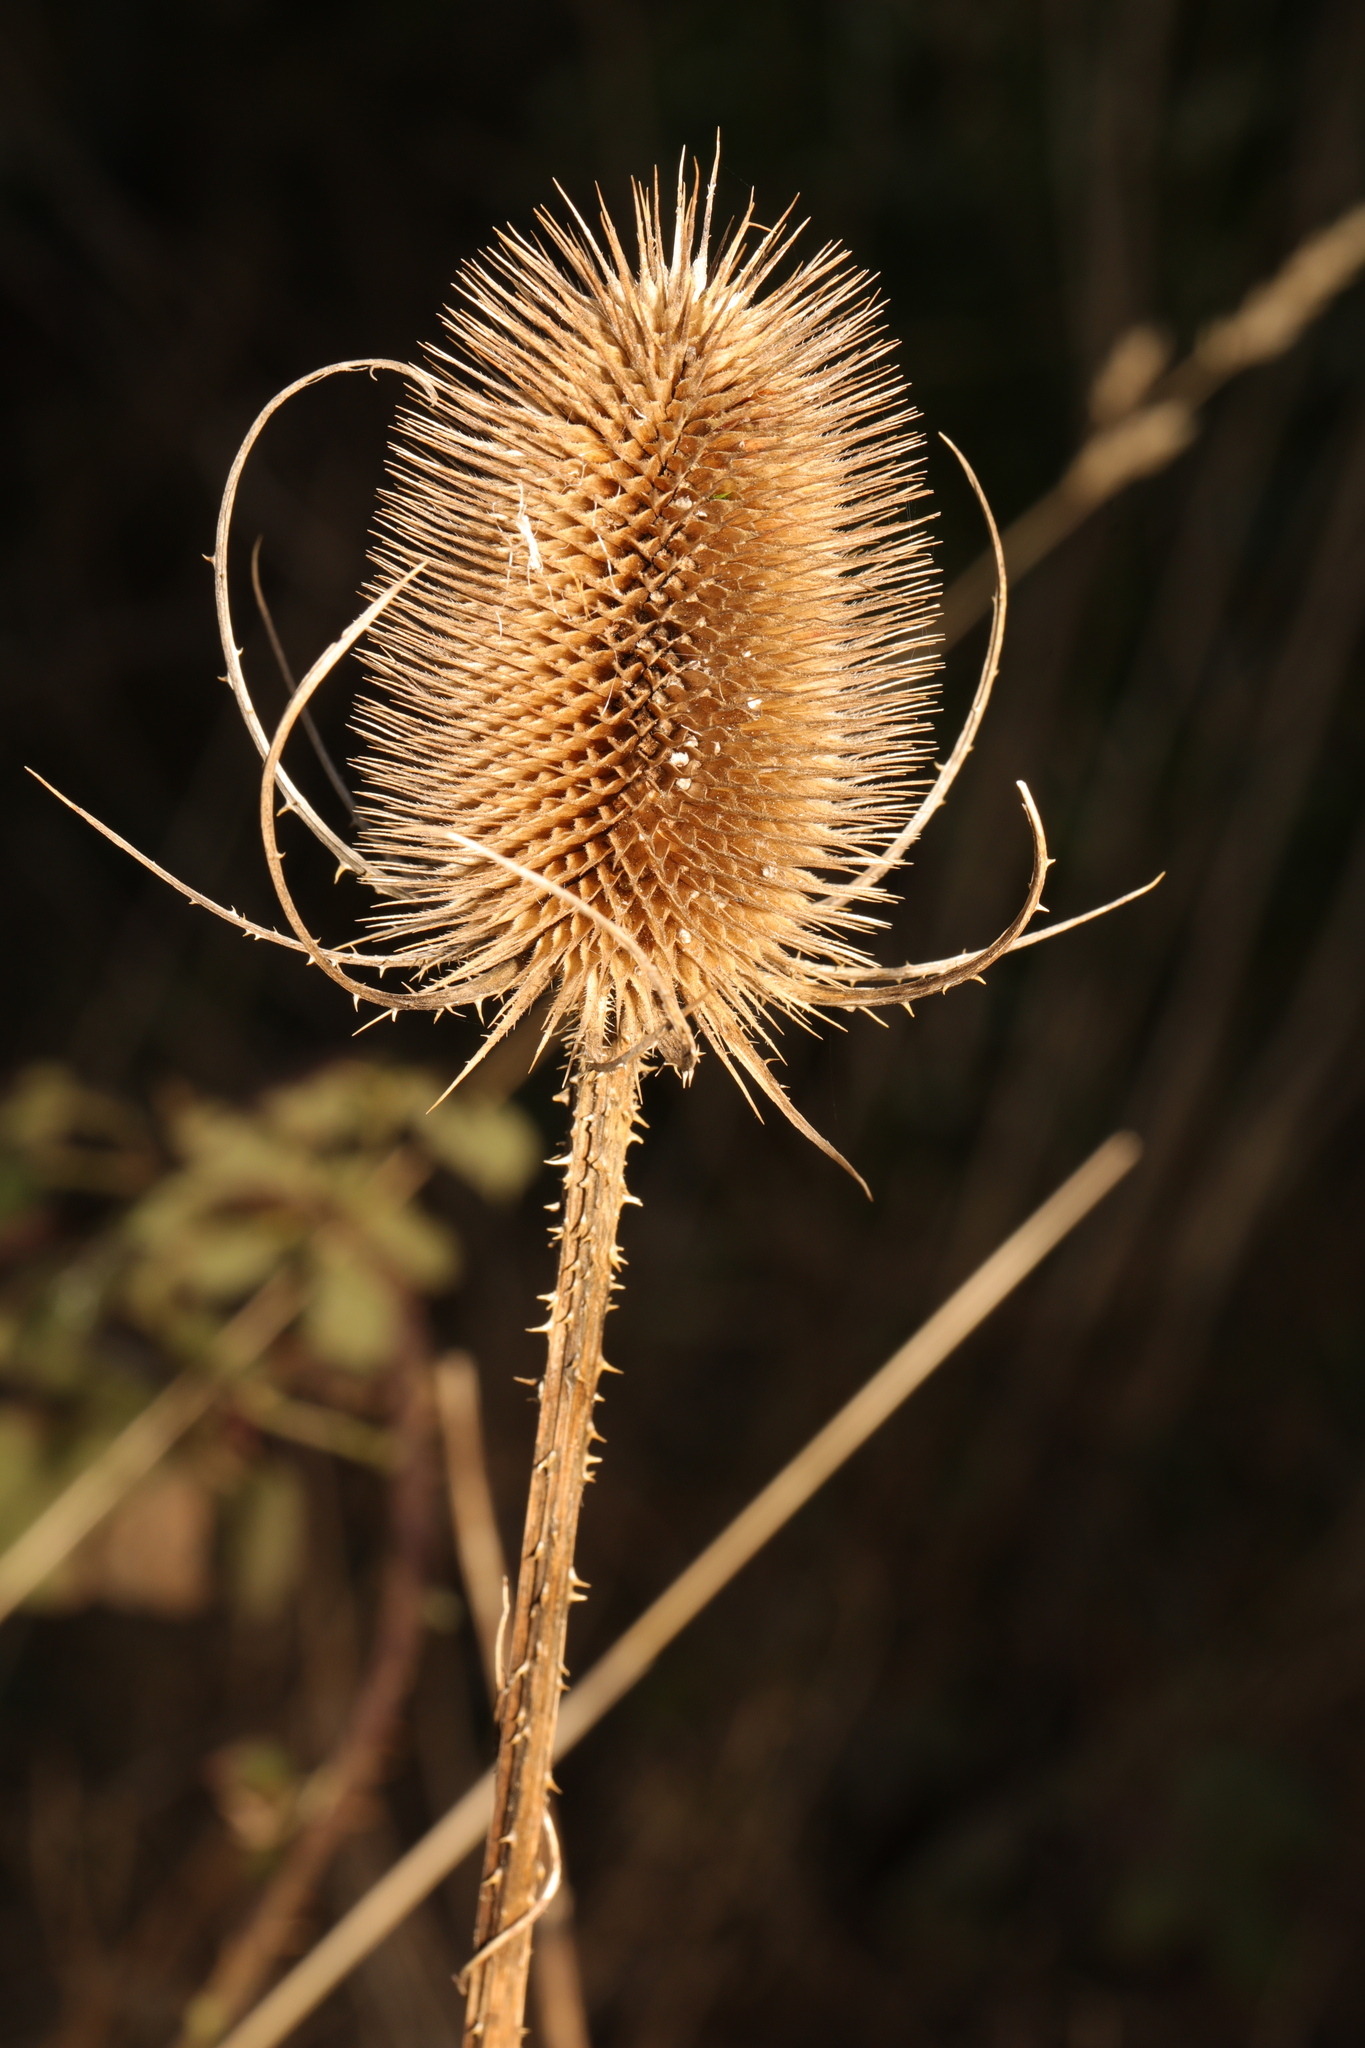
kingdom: Plantae
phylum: Tracheophyta
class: Magnoliopsida
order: Dipsacales
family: Caprifoliaceae
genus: Dipsacus
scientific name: Dipsacus fullonum
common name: Teasel
